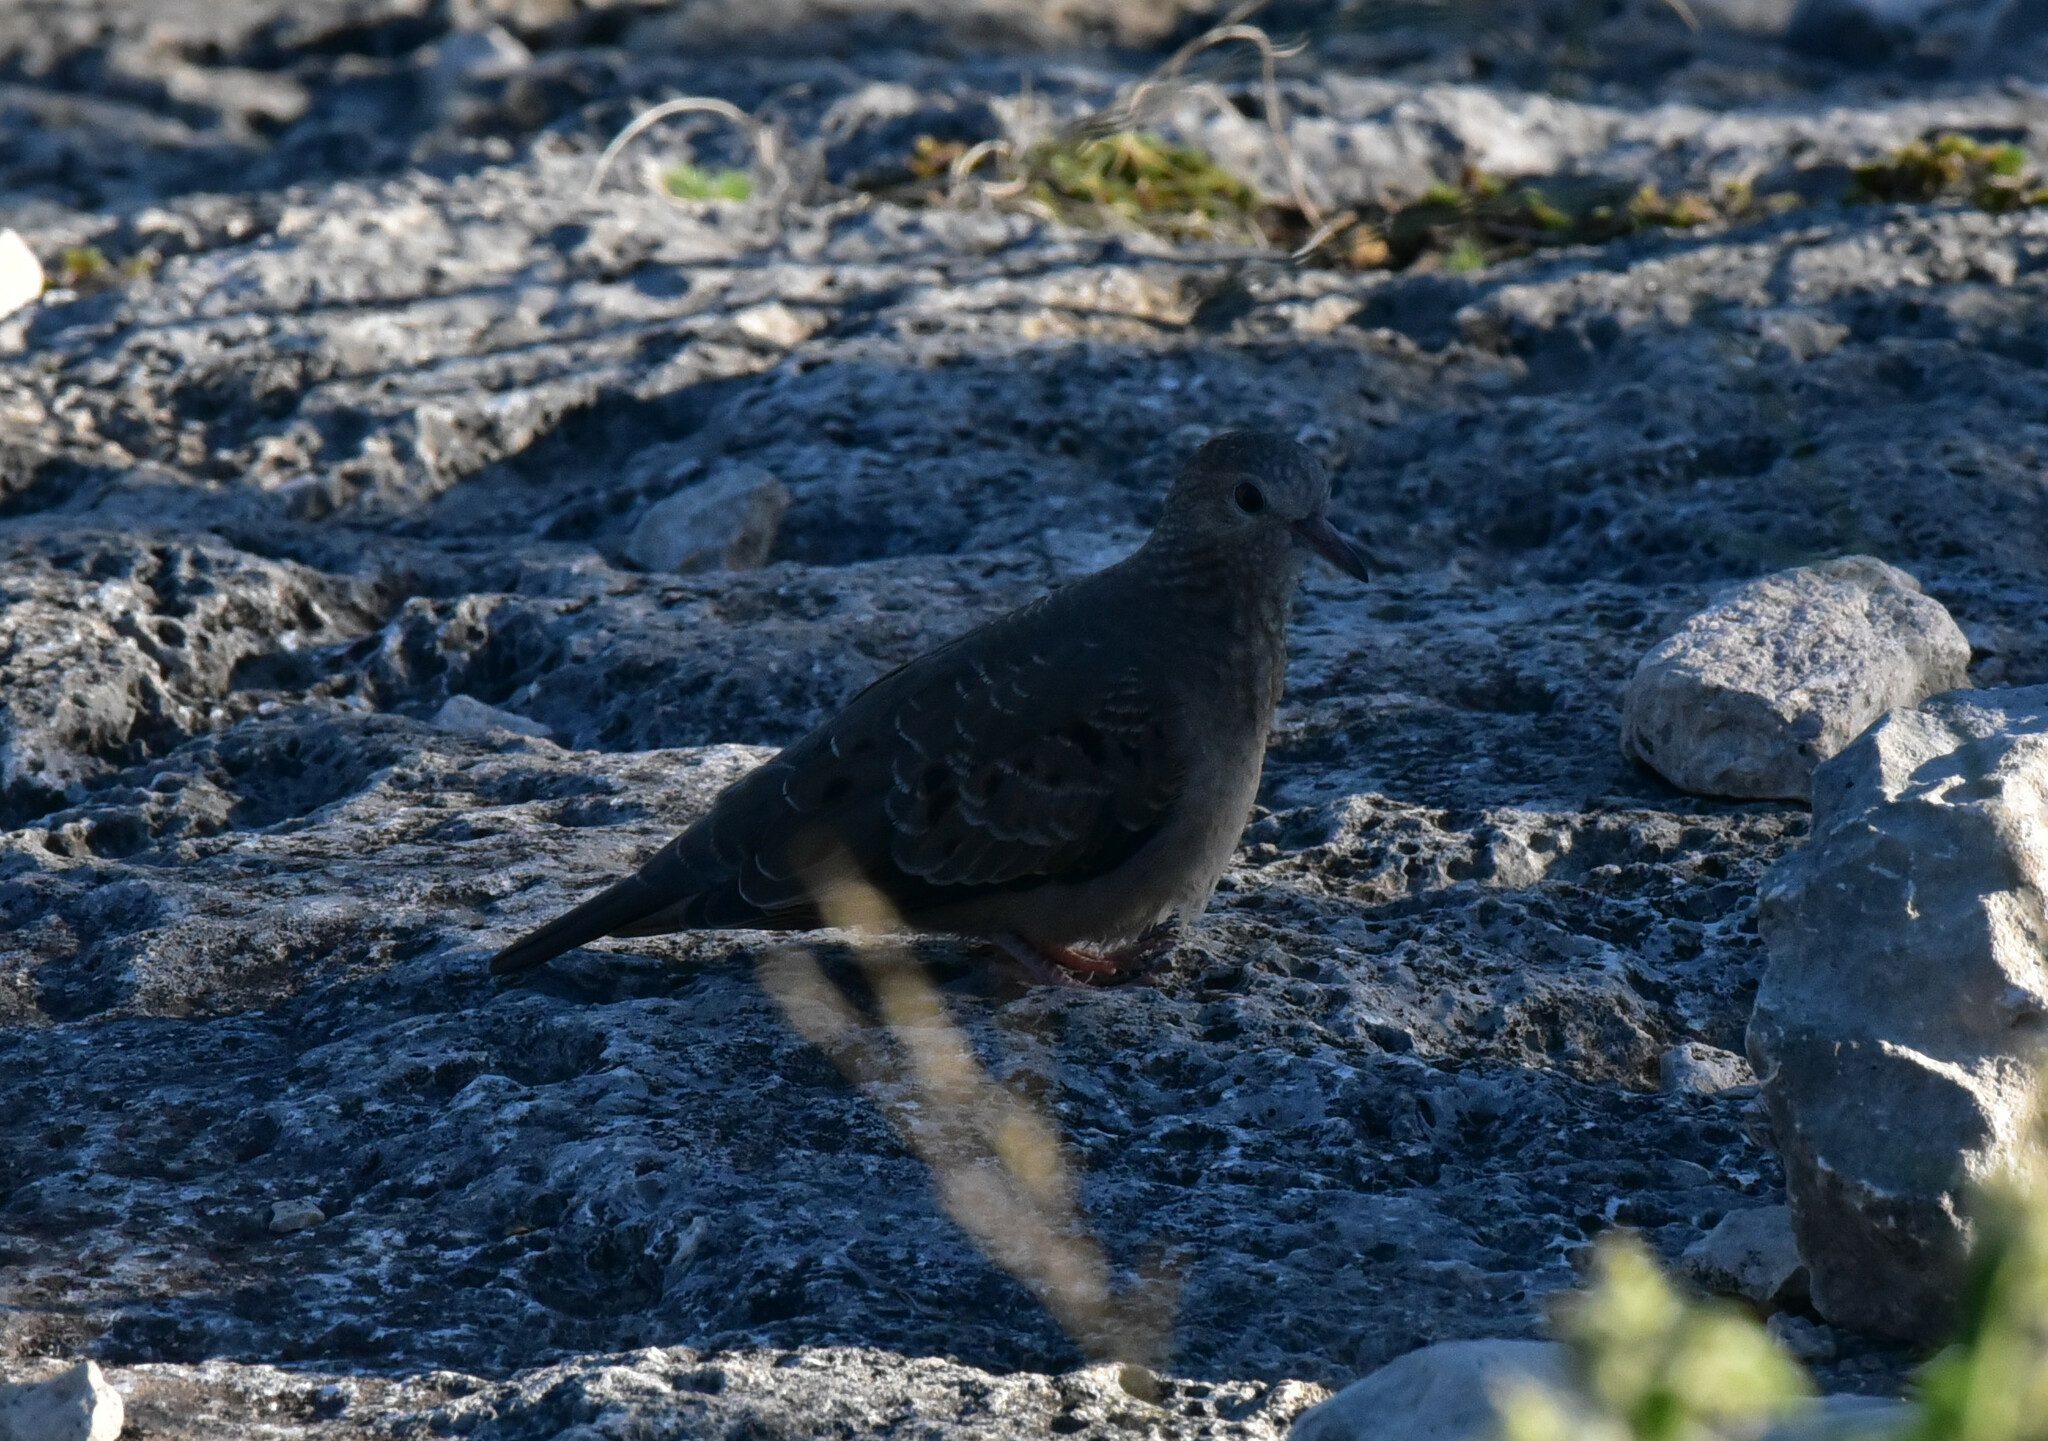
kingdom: Animalia
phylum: Chordata
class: Aves
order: Columbiformes
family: Columbidae
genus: Columbina
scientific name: Columbina passerina
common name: Common ground-dove
